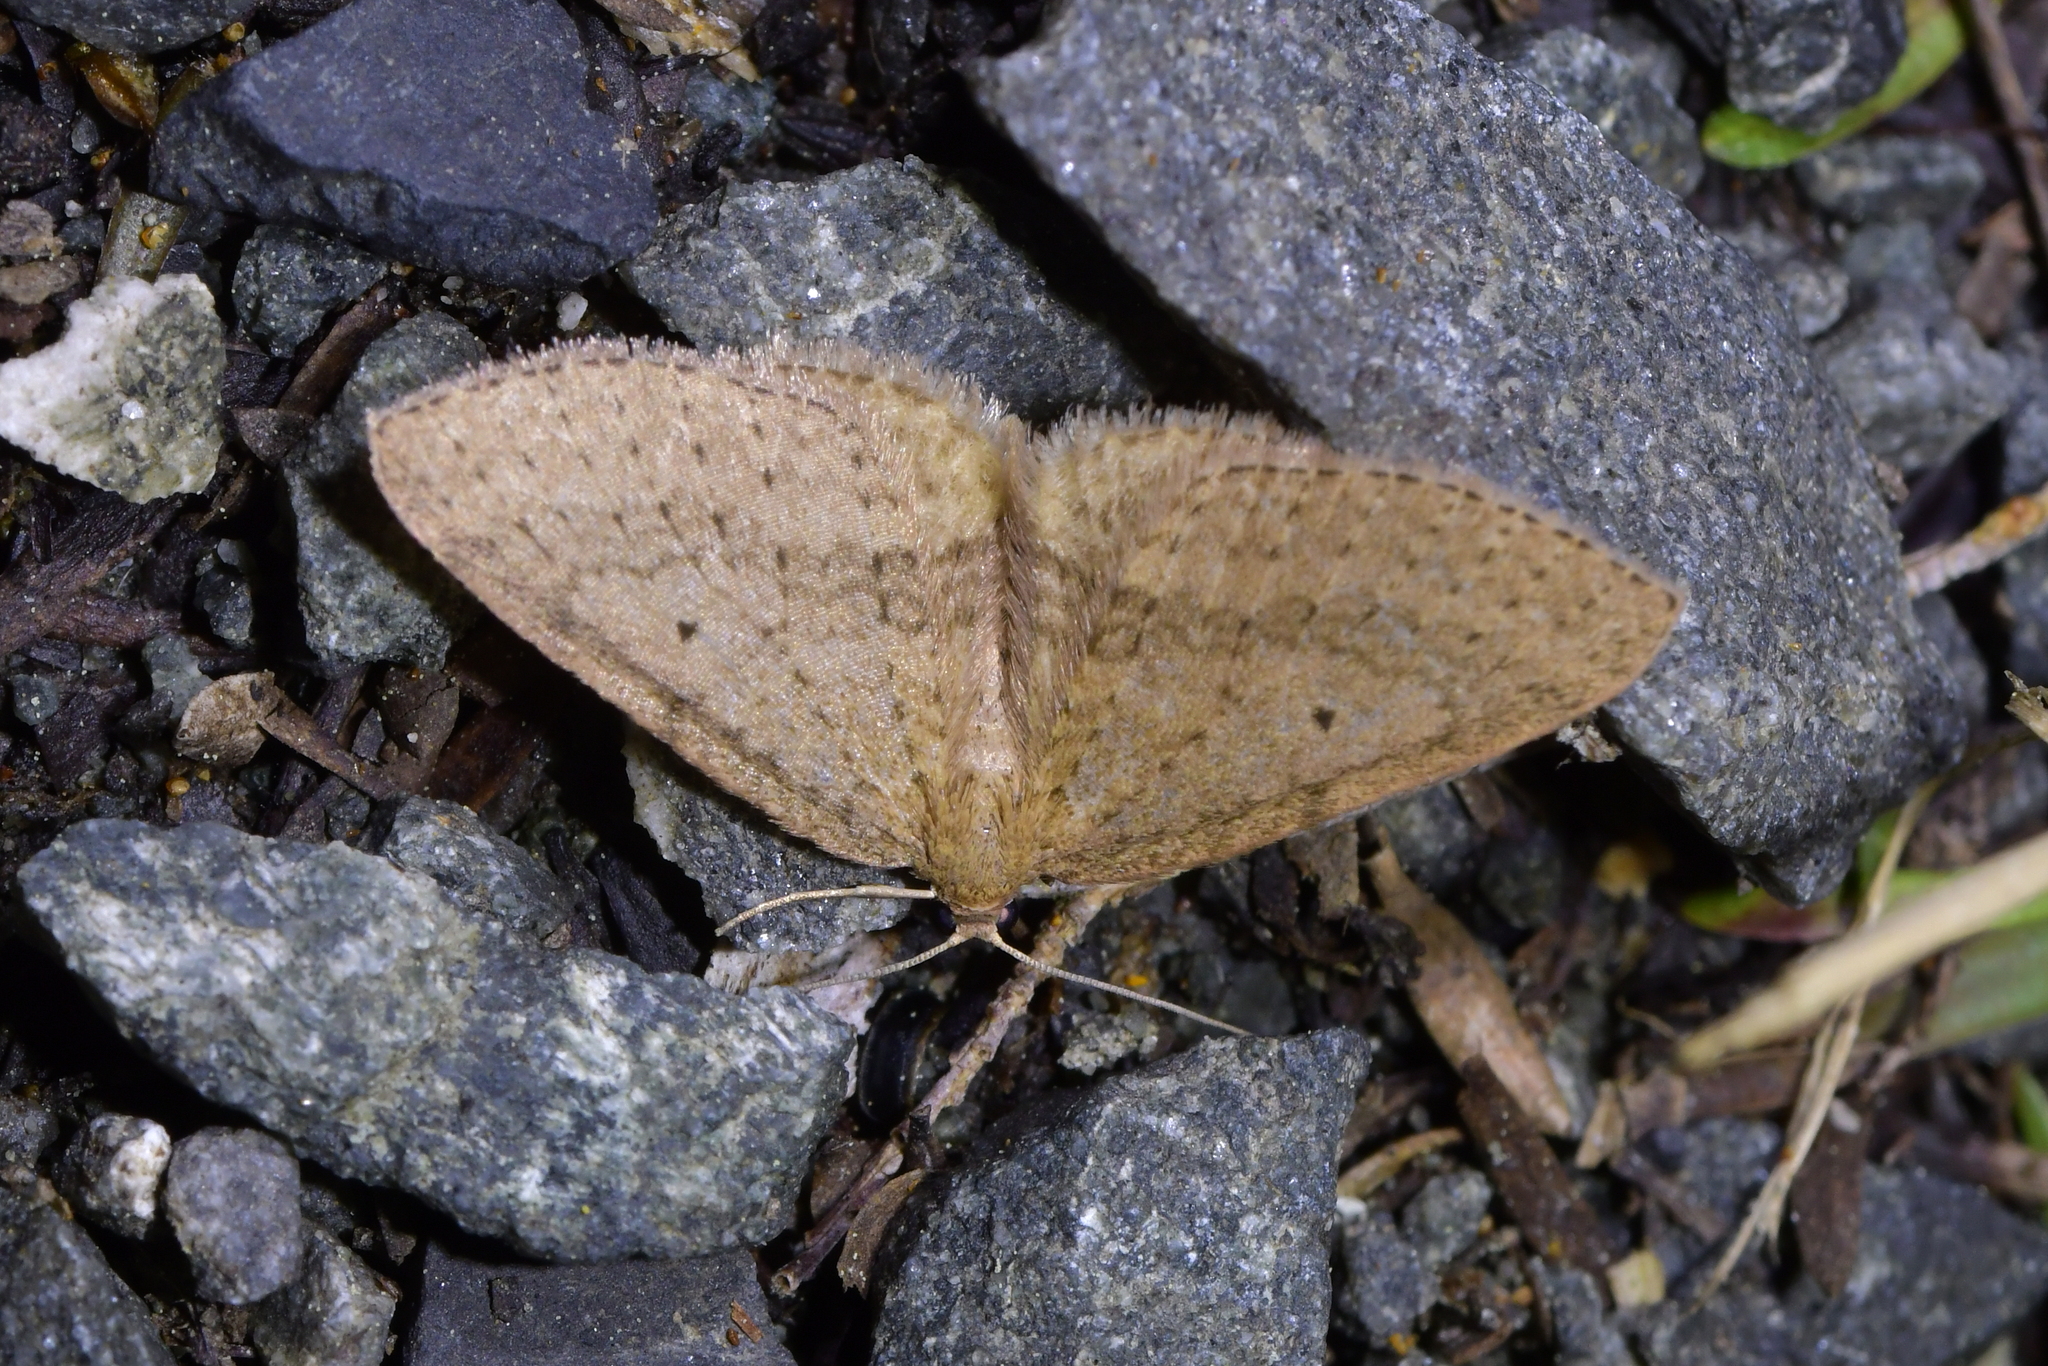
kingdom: Animalia
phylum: Arthropoda
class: Insecta
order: Lepidoptera
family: Geometridae
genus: Poecilasthena
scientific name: Poecilasthena schistaria
